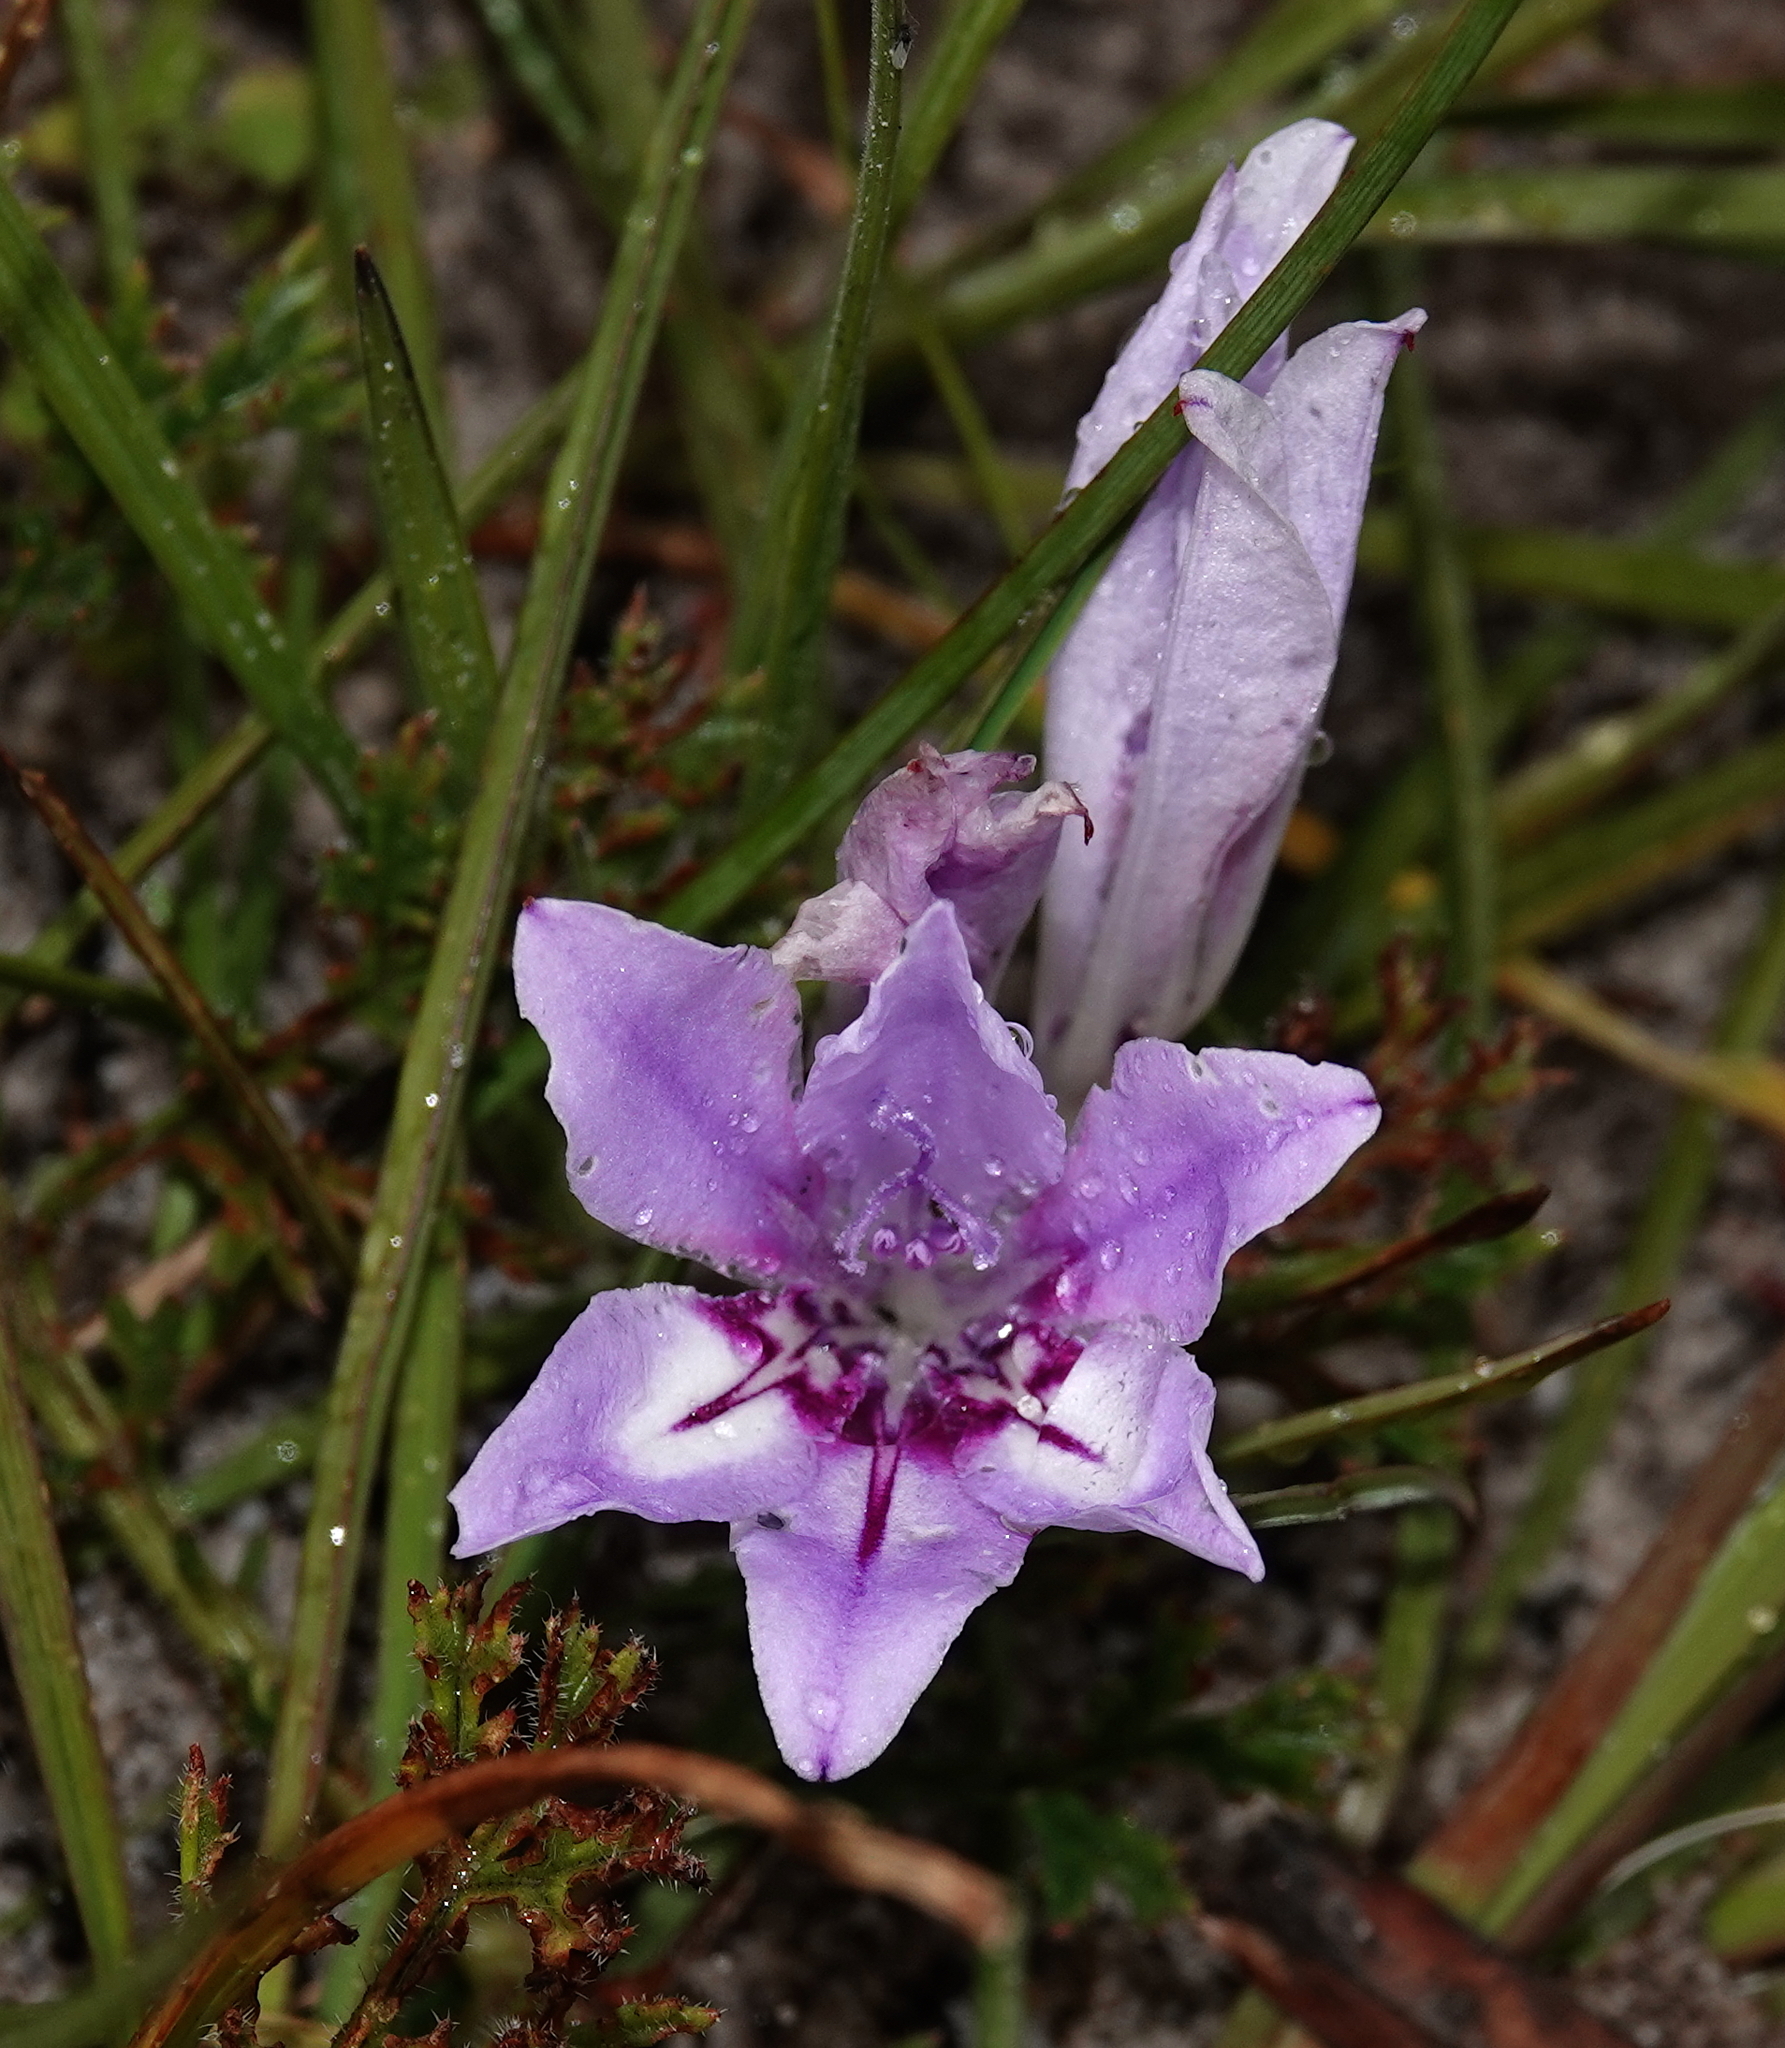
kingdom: Plantae
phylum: Tracheophyta
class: Liliopsida
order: Asparagales
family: Iridaceae
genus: Babiana
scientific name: Babiana ambigua
